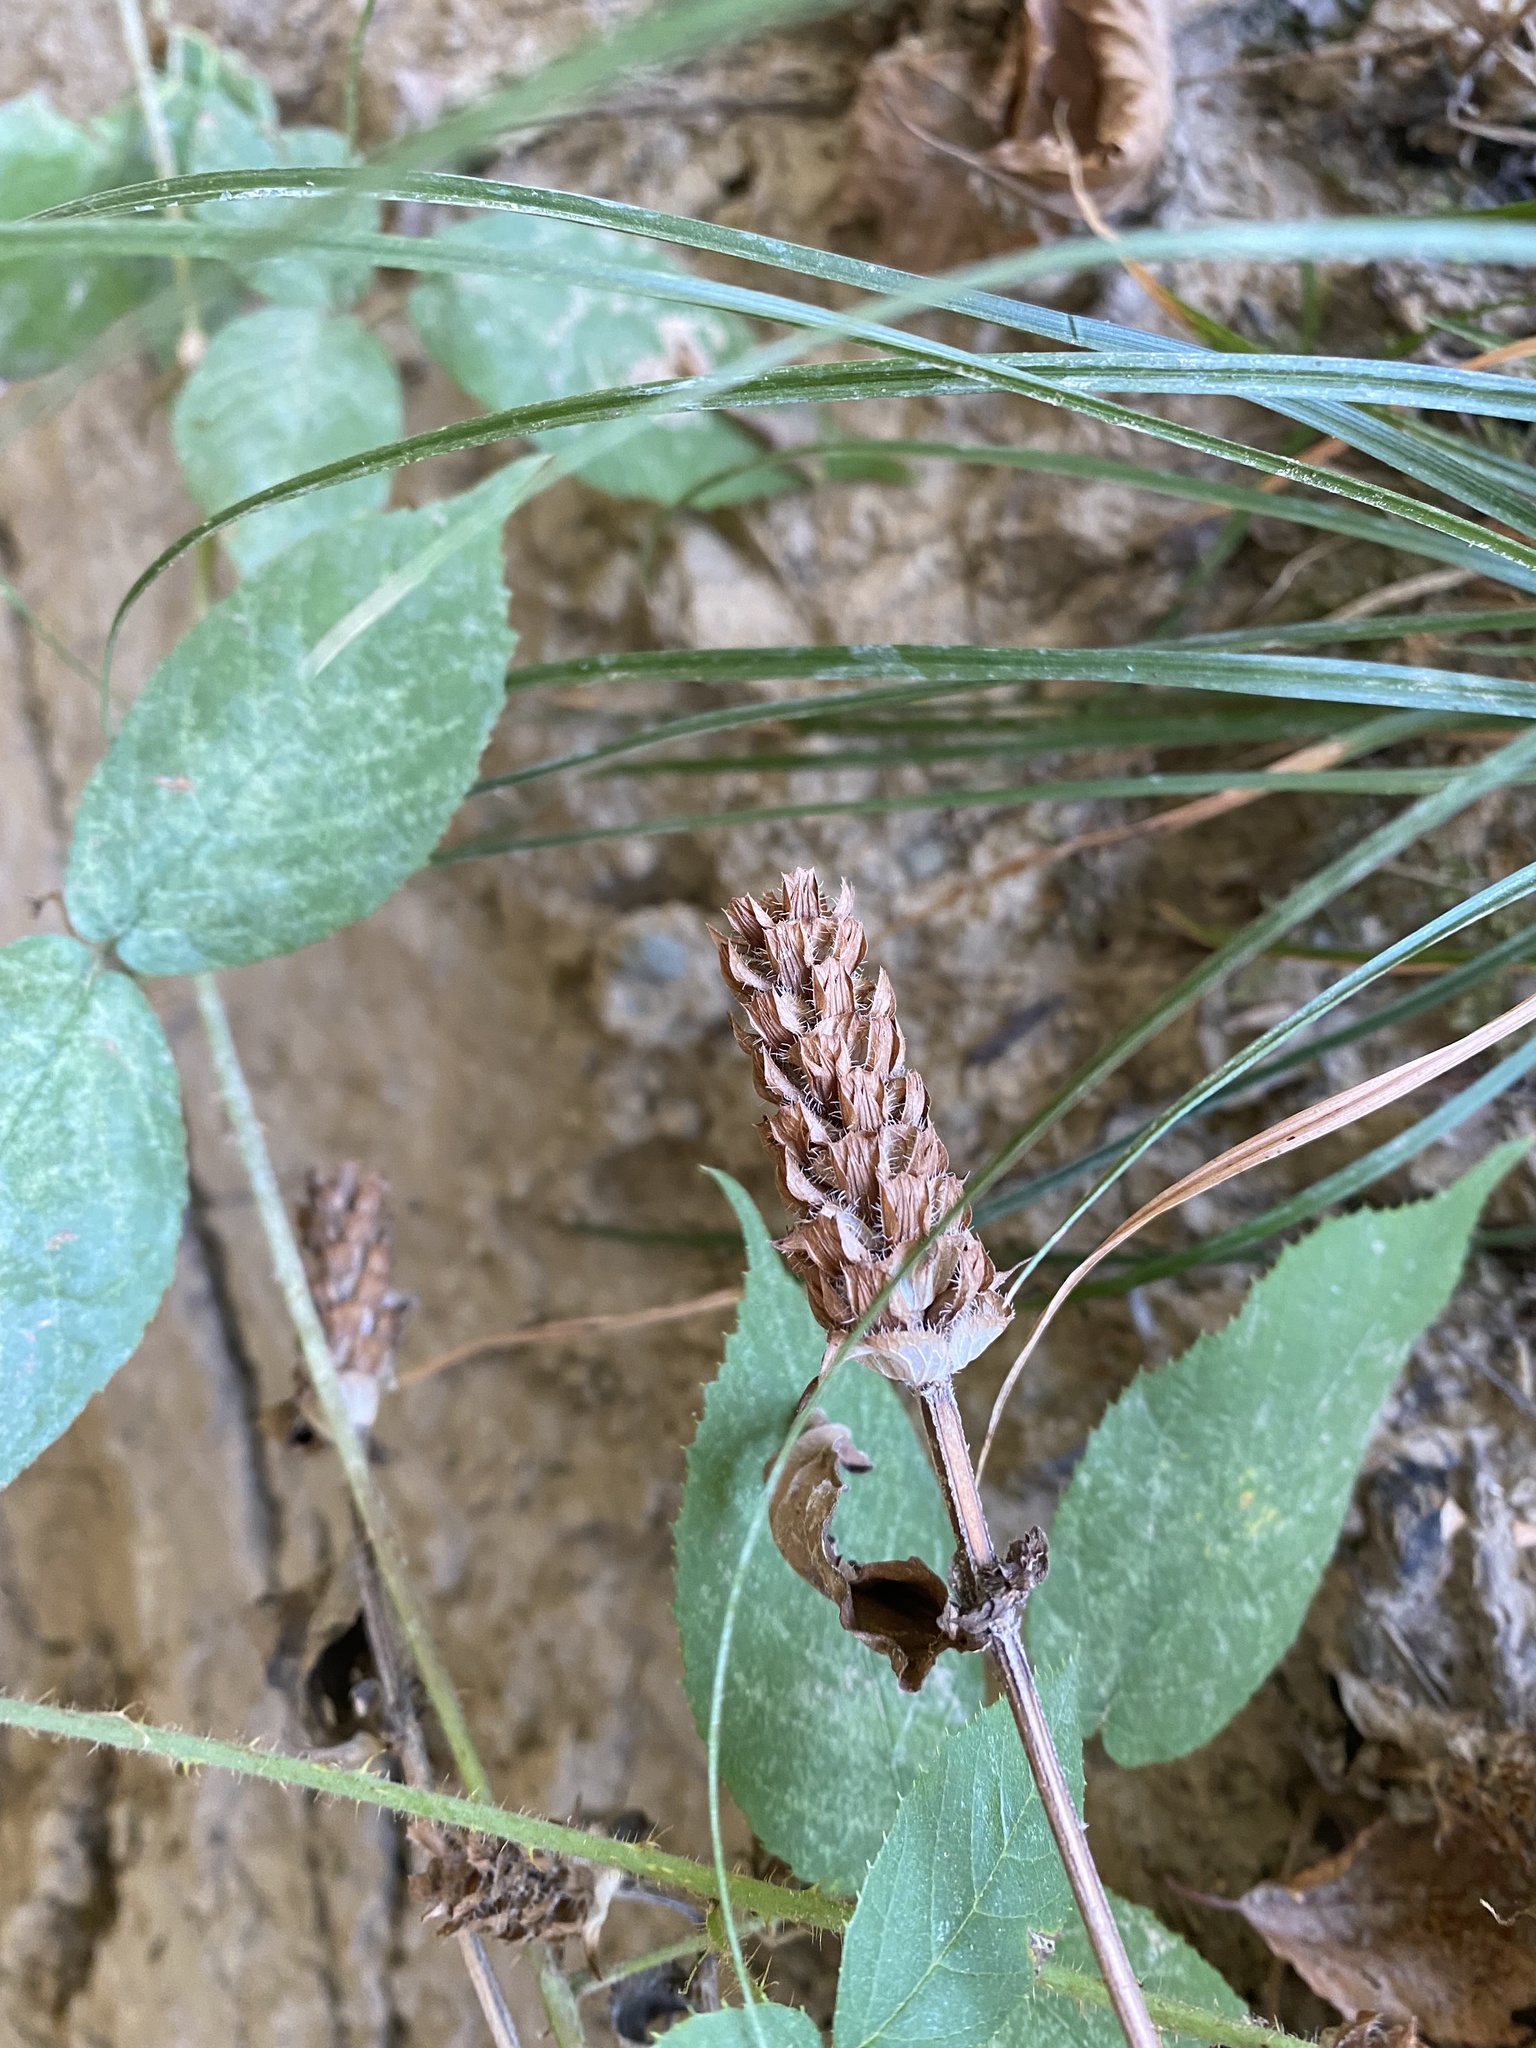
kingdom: Plantae
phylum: Tracheophyta
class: Magnoliopsida
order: Lamiales
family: Lamiaceae
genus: Prunella
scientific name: Prunella vulgaris
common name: Heal-all
